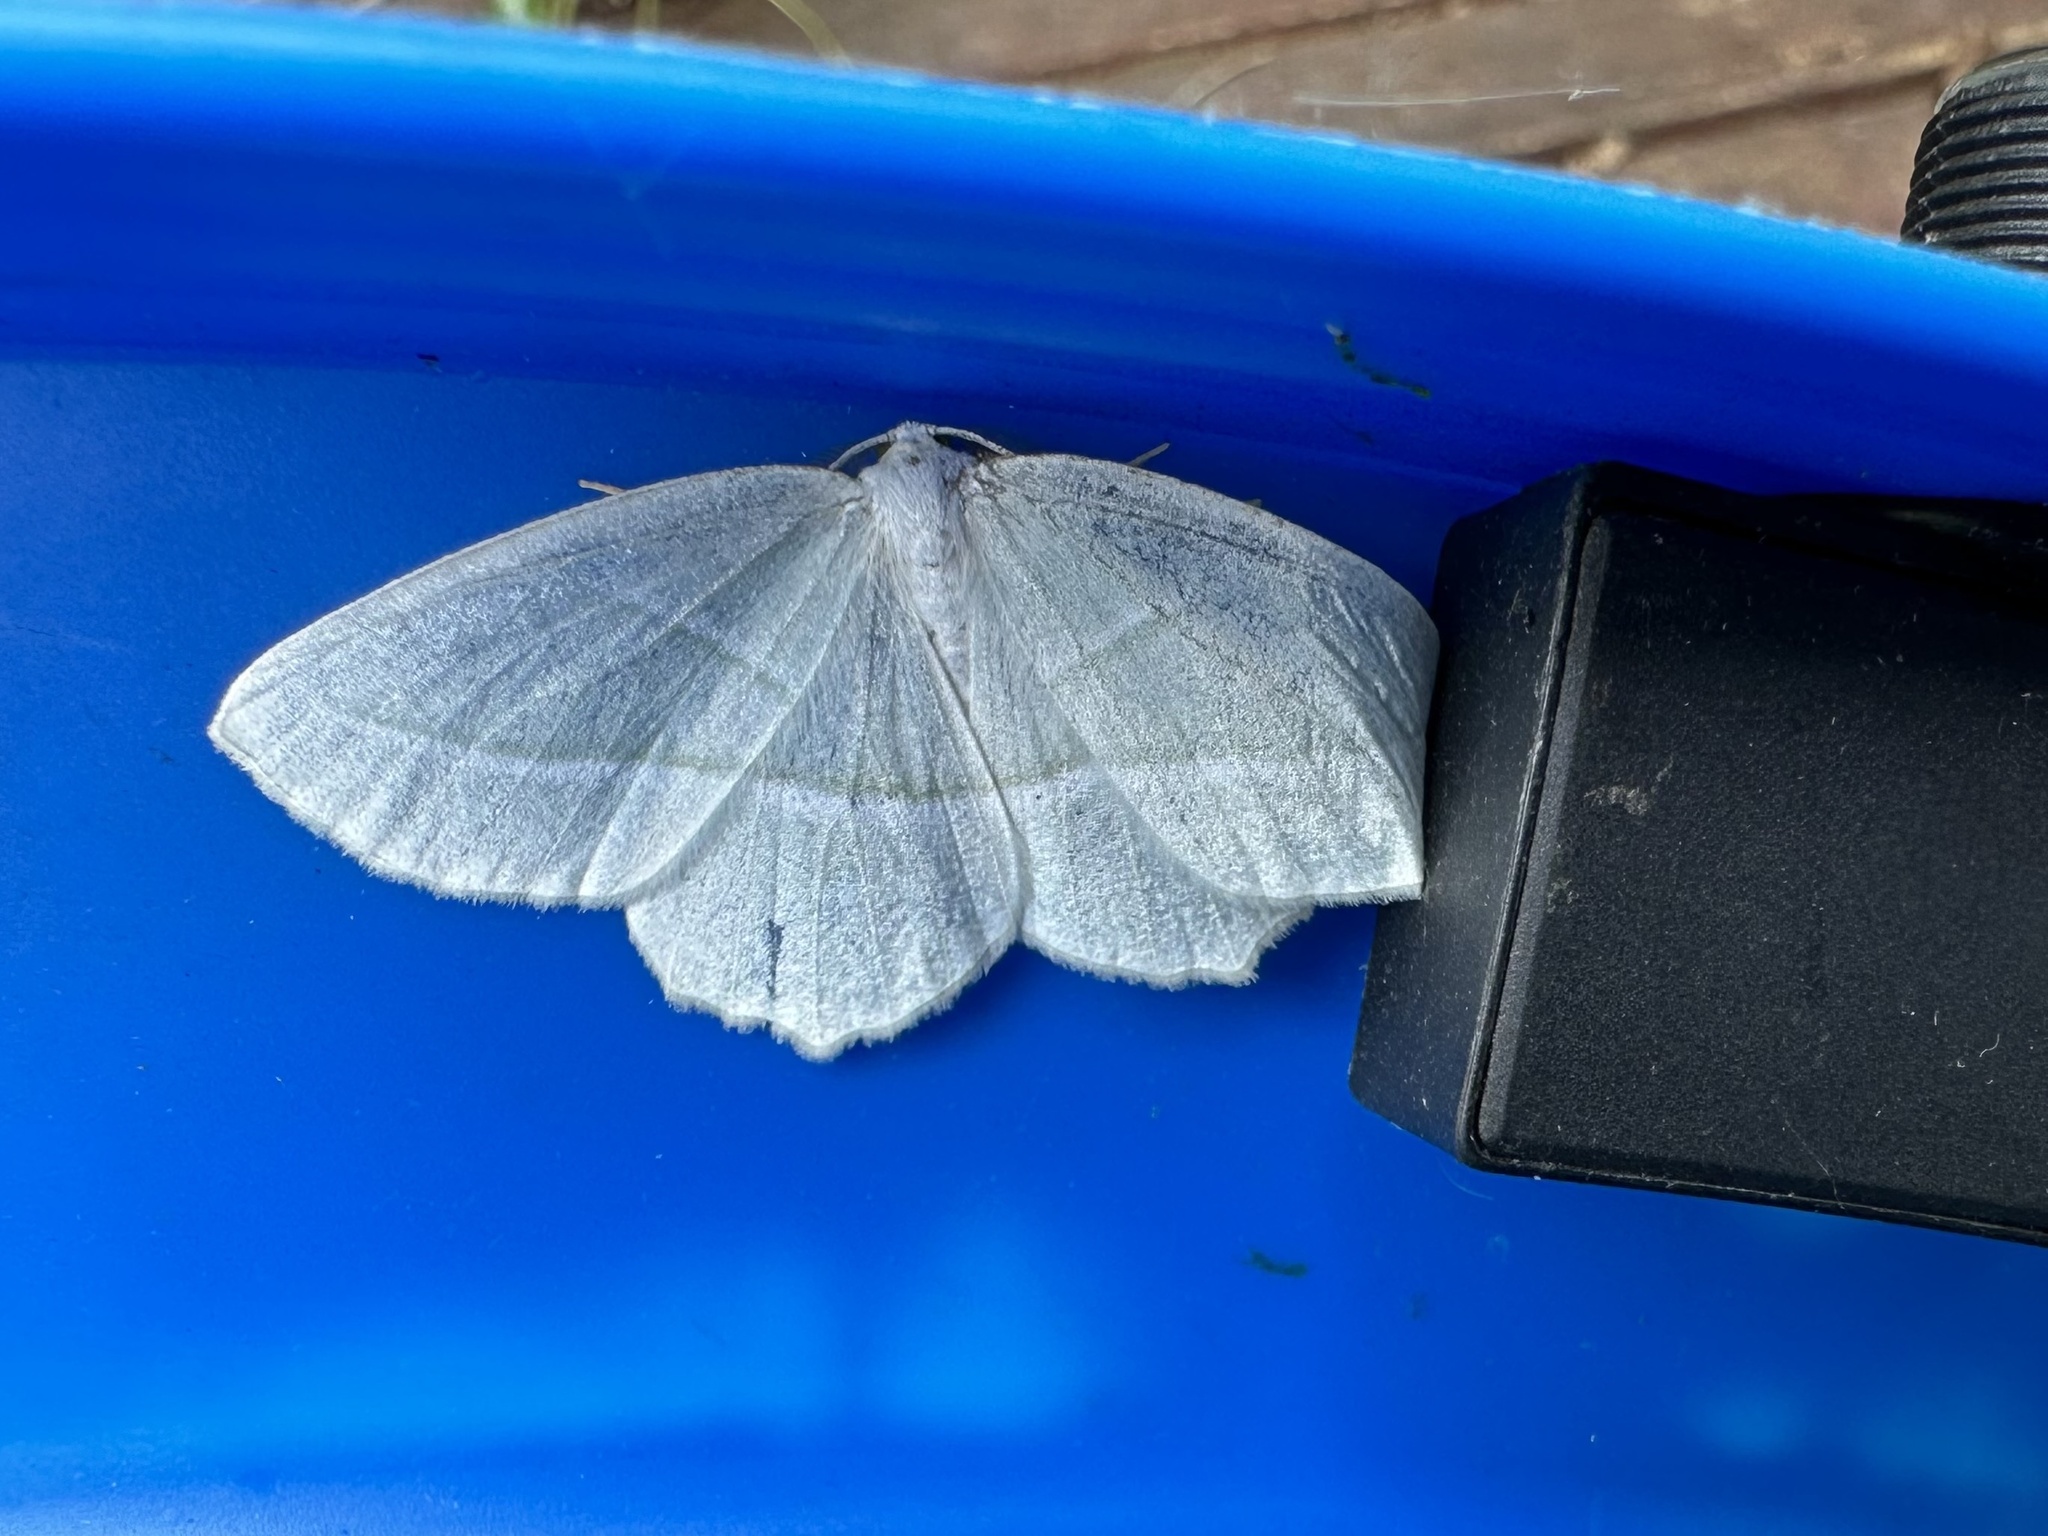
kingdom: Animalia
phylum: Arthropoda
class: Insecta
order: Lepidoptera
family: Geometridae
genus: Campaea
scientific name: Campaea perlata
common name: Fringed looper
